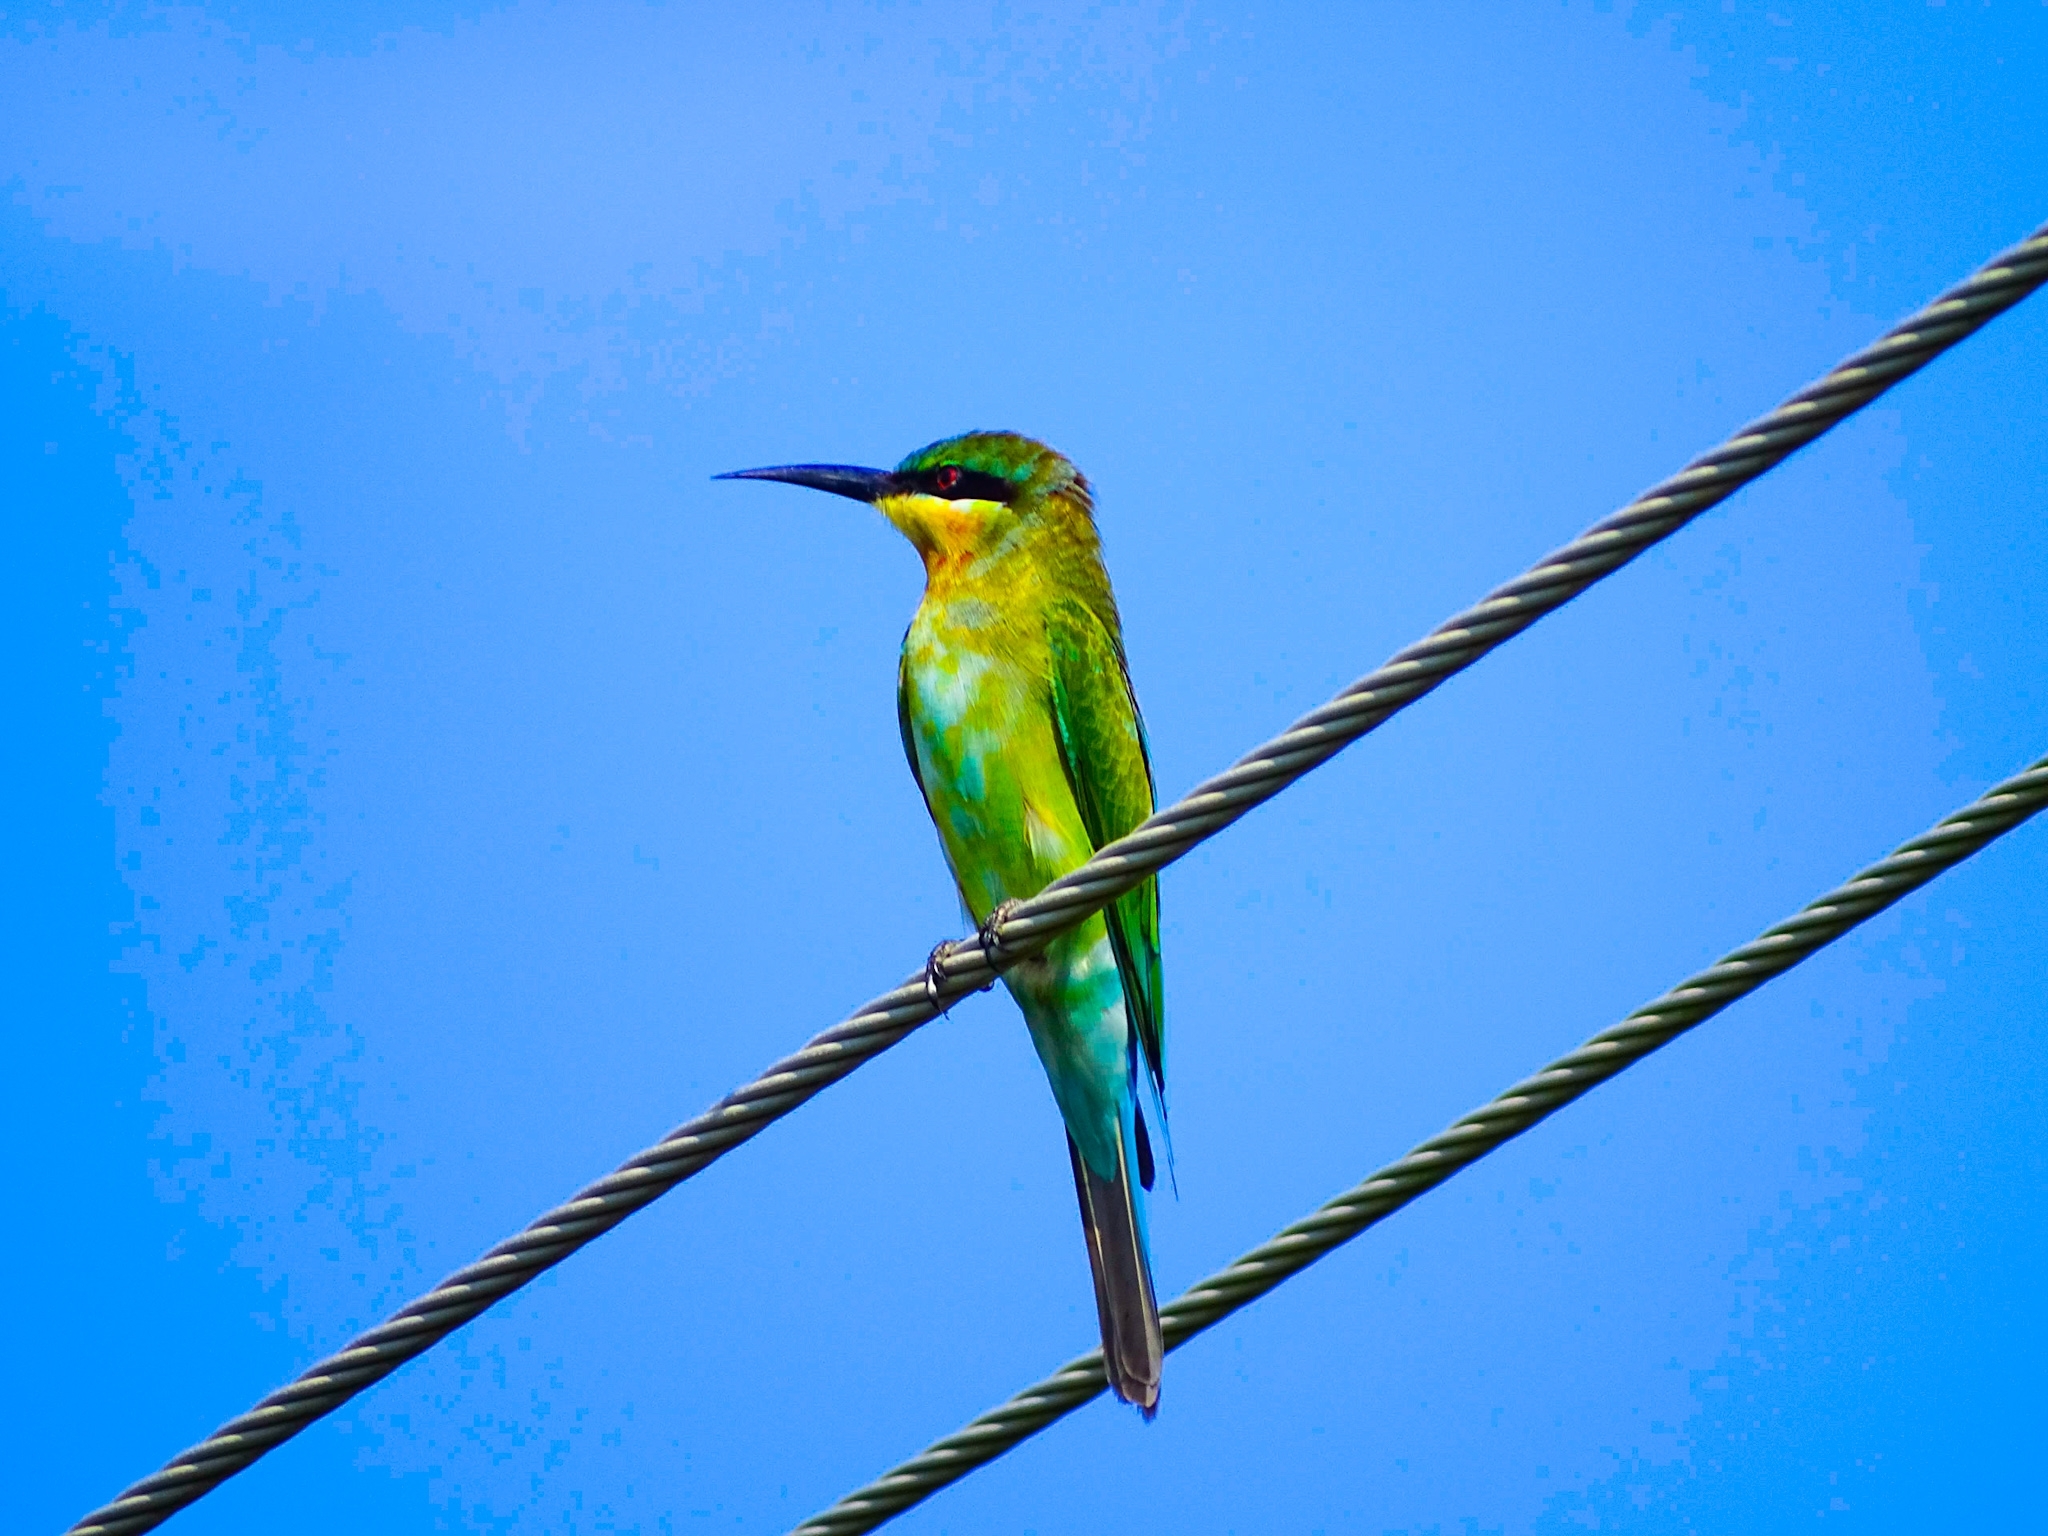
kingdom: Animalia
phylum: Chordata
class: Aves
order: Coraciiformes
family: Meropidae
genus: Merops
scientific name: Merops philippinus
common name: Blue-tailed bee-eater
